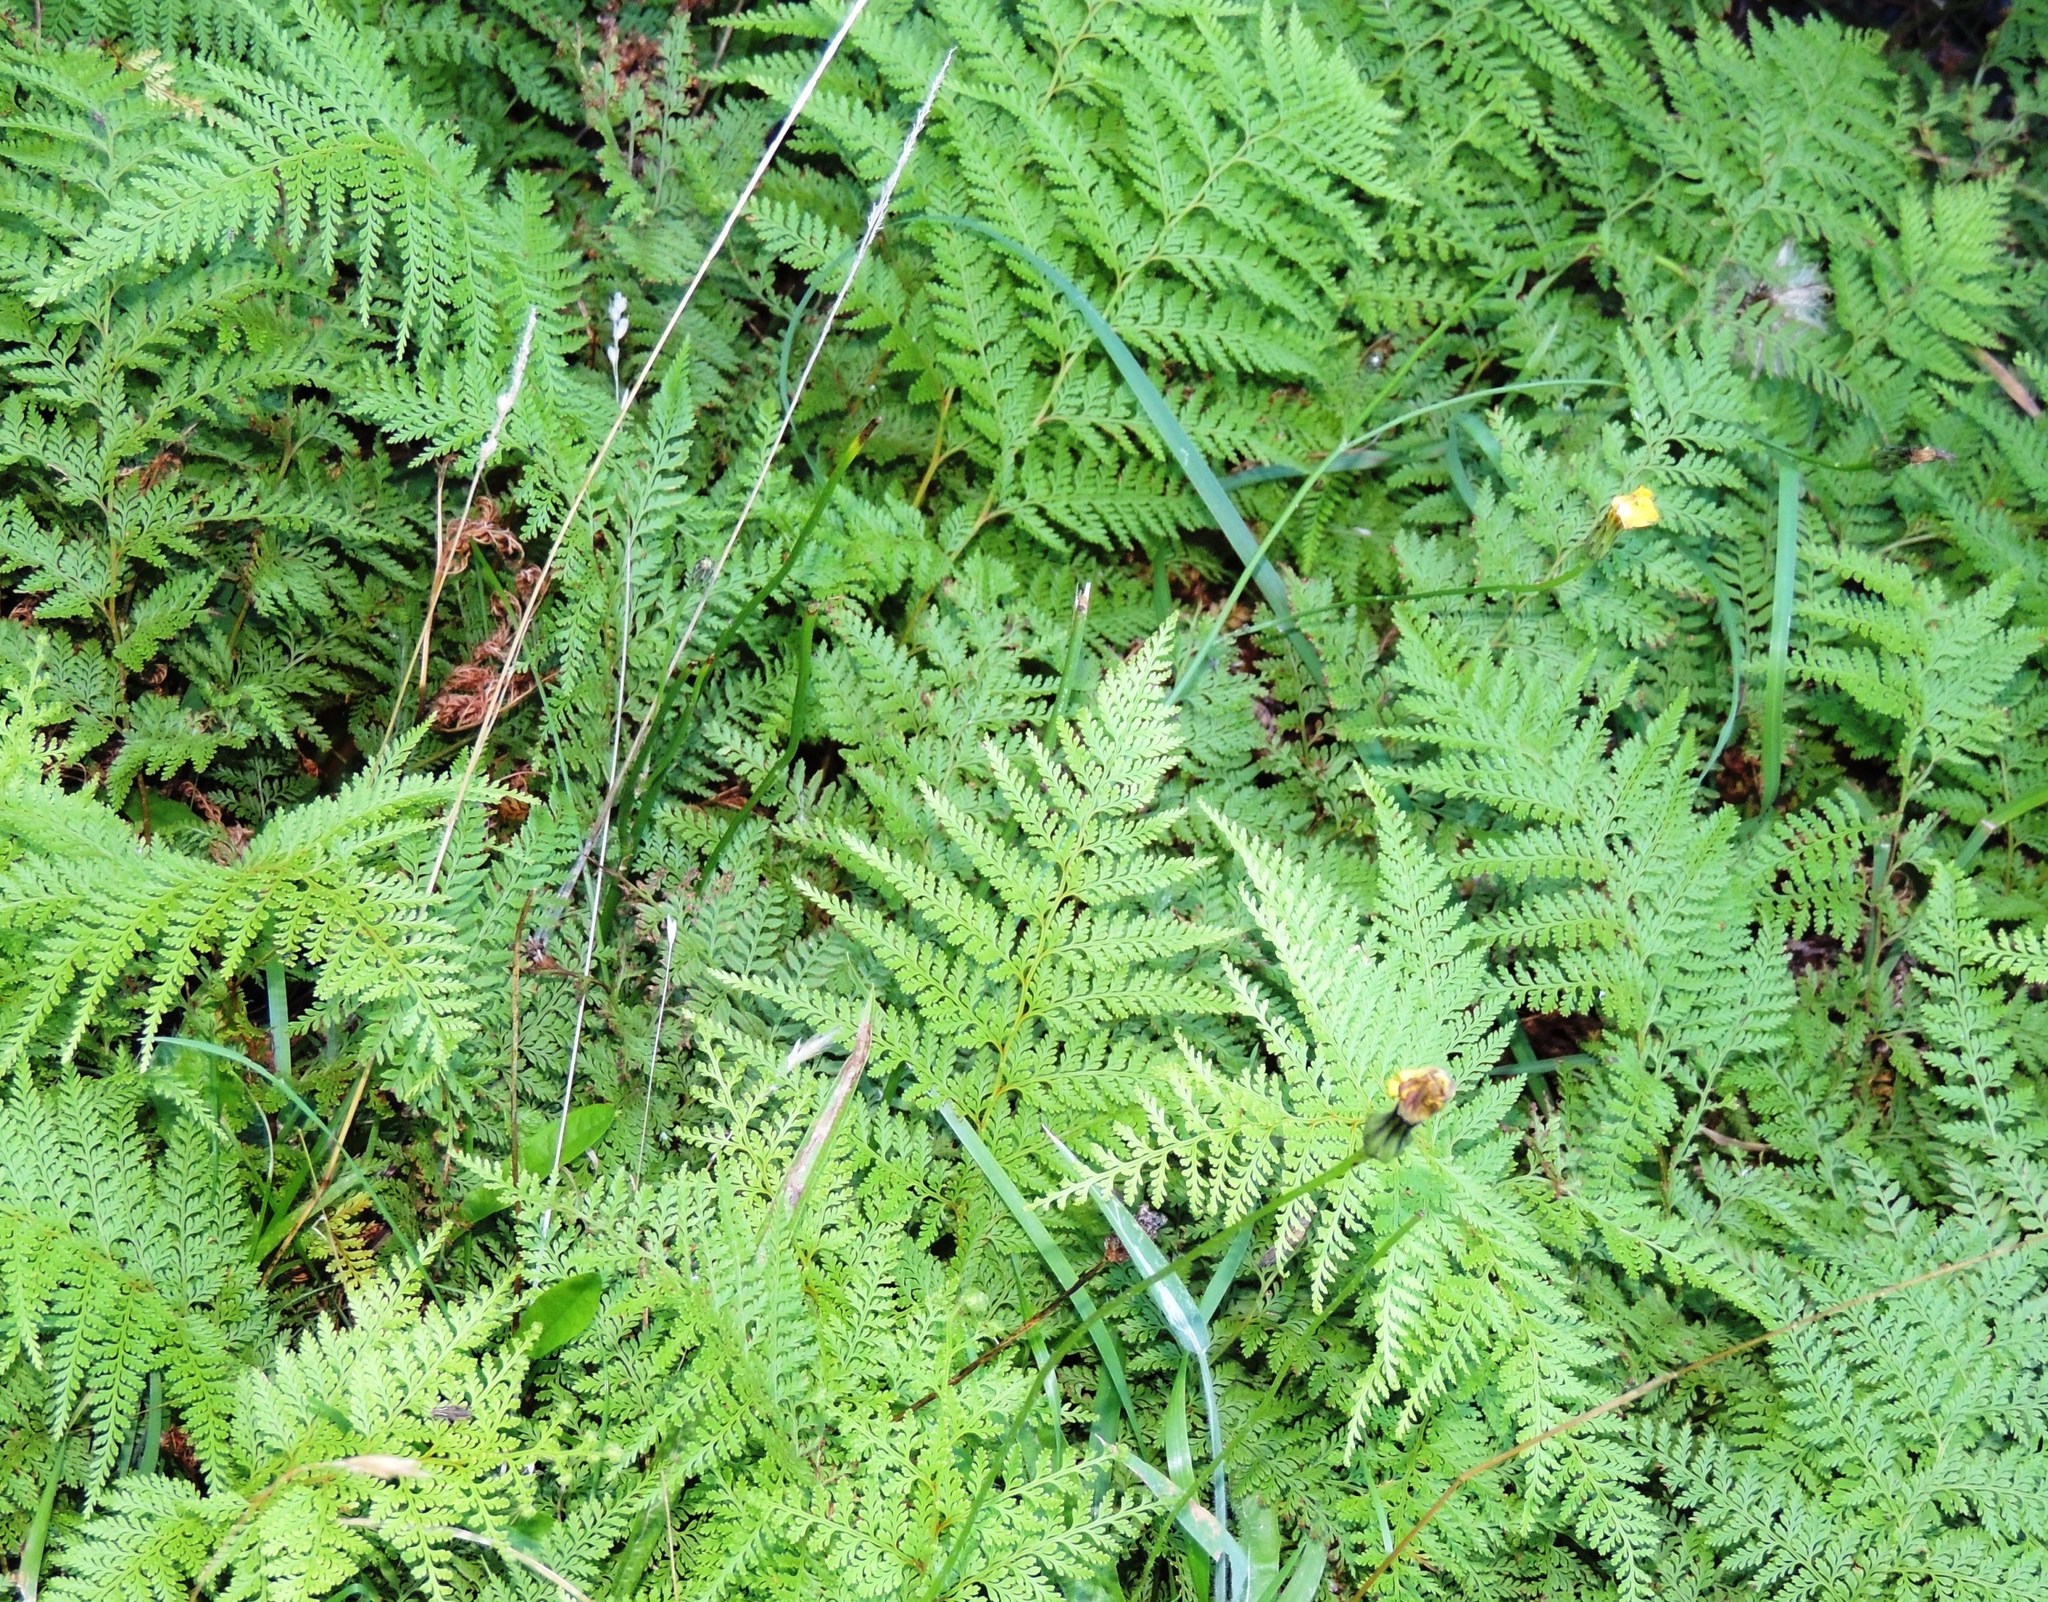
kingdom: Plantae
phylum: Tracheophyta
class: Polypodiopsida
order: Polypodiales
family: Dennstaedtiaceae
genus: Paesia
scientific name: Paesia scaberula
